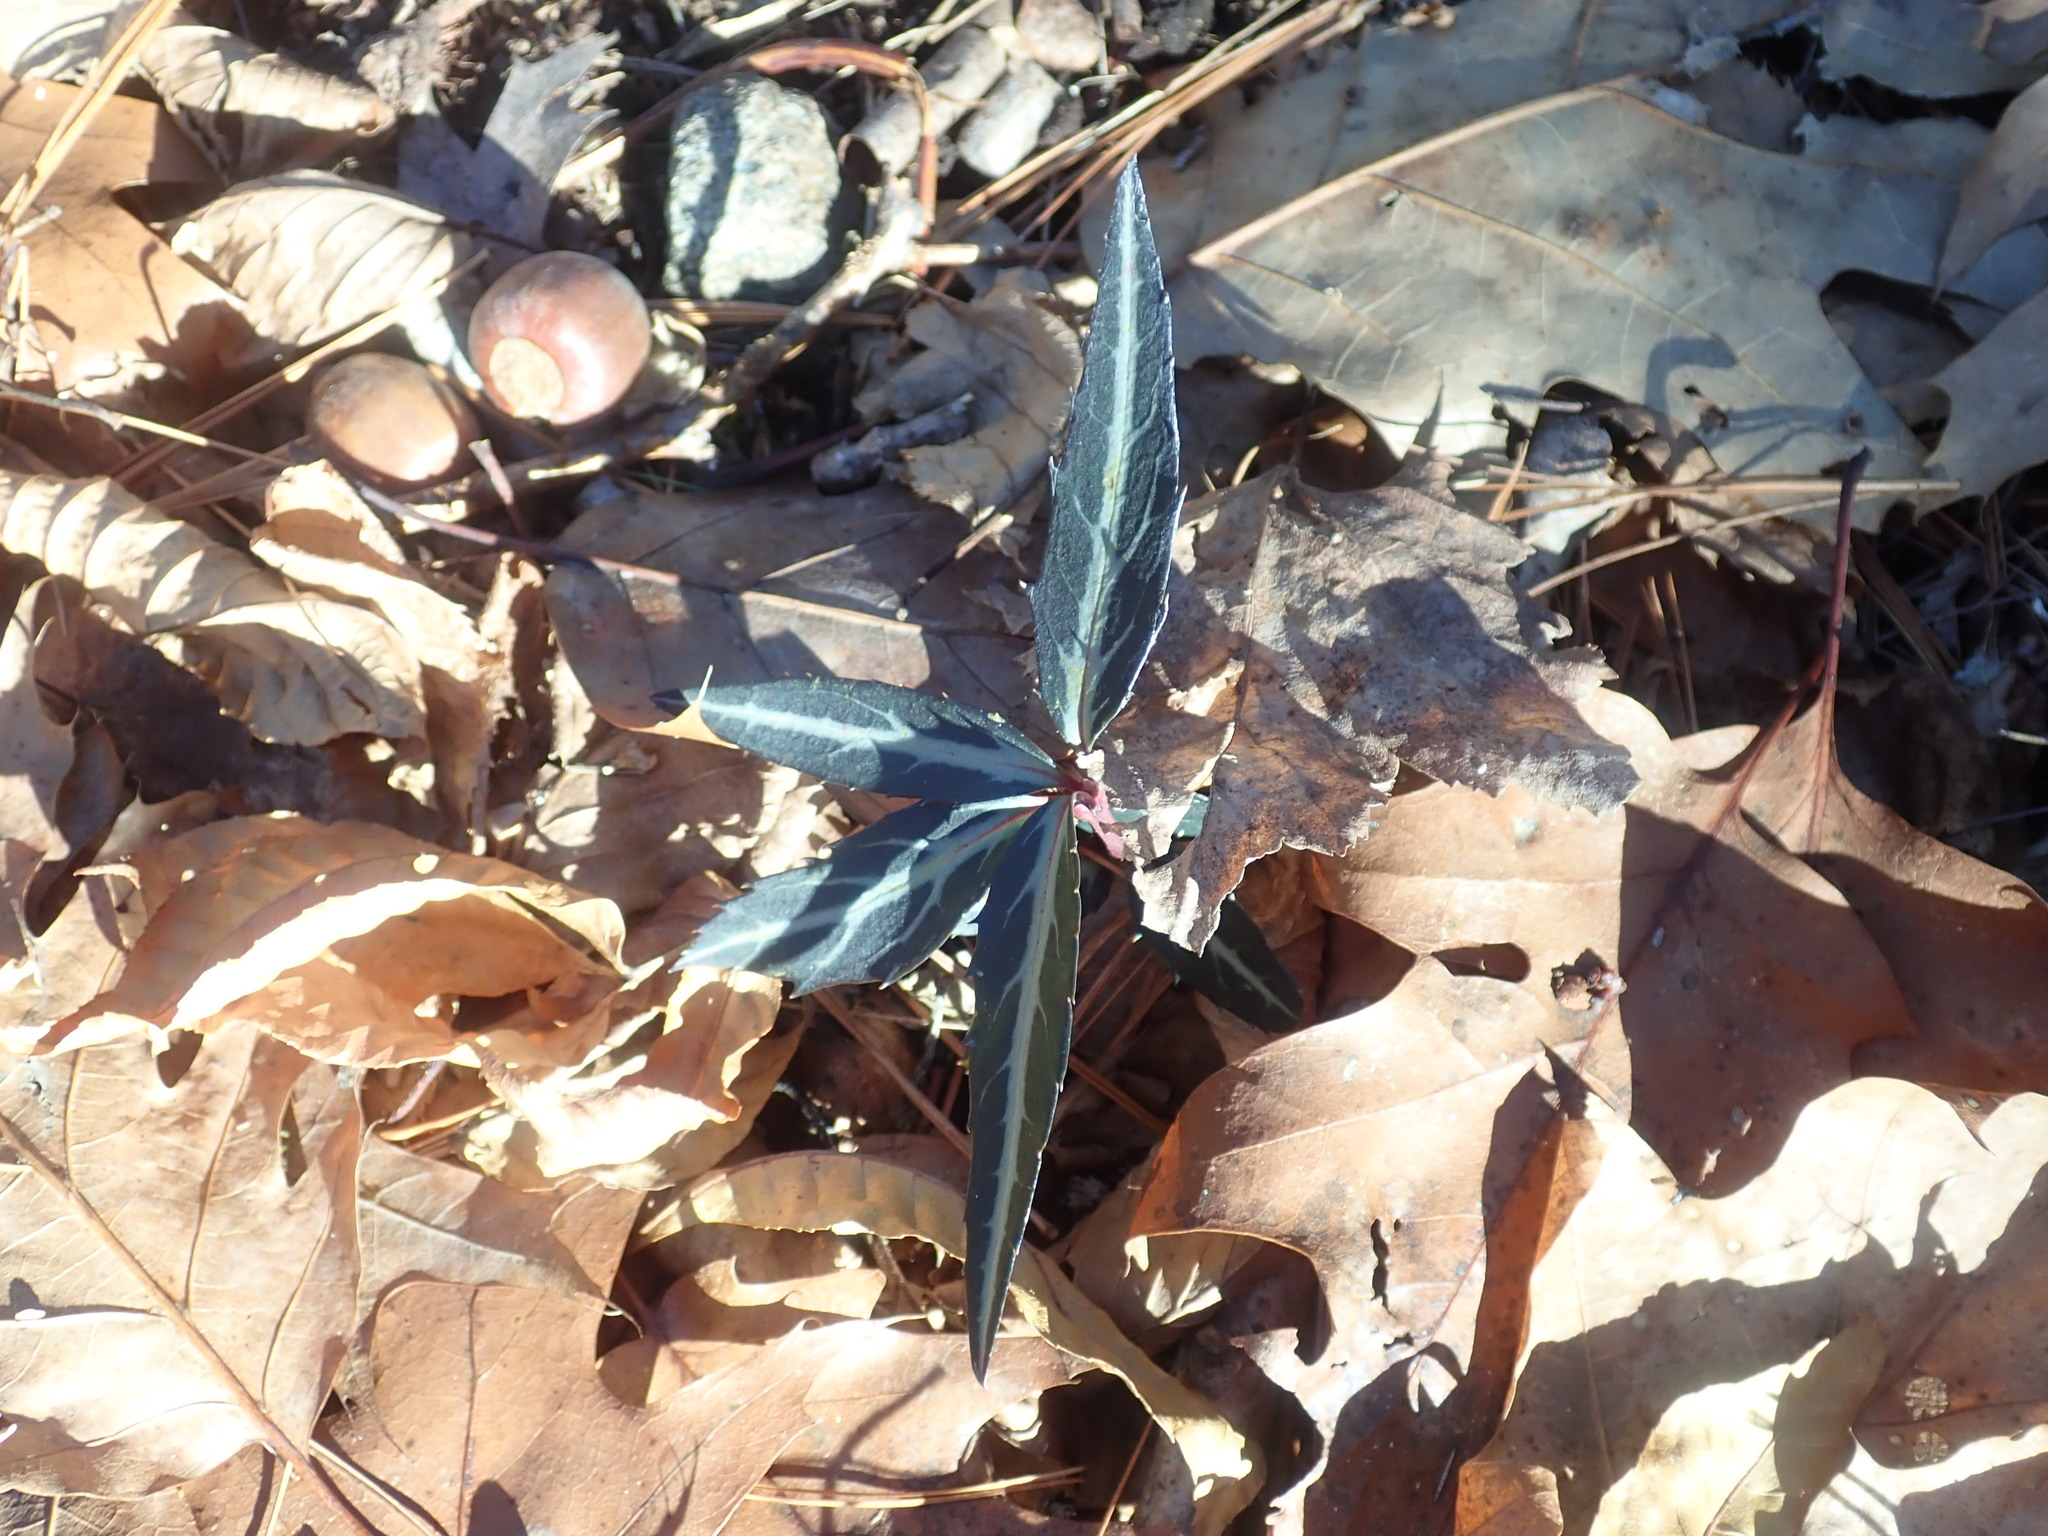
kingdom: Plantae
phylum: Tracheophyta
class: Magnoliopsida
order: Ericales
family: Ericaceae
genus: Chimaphila
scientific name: Chimaphila maculata
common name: Spotted pipsissewa
